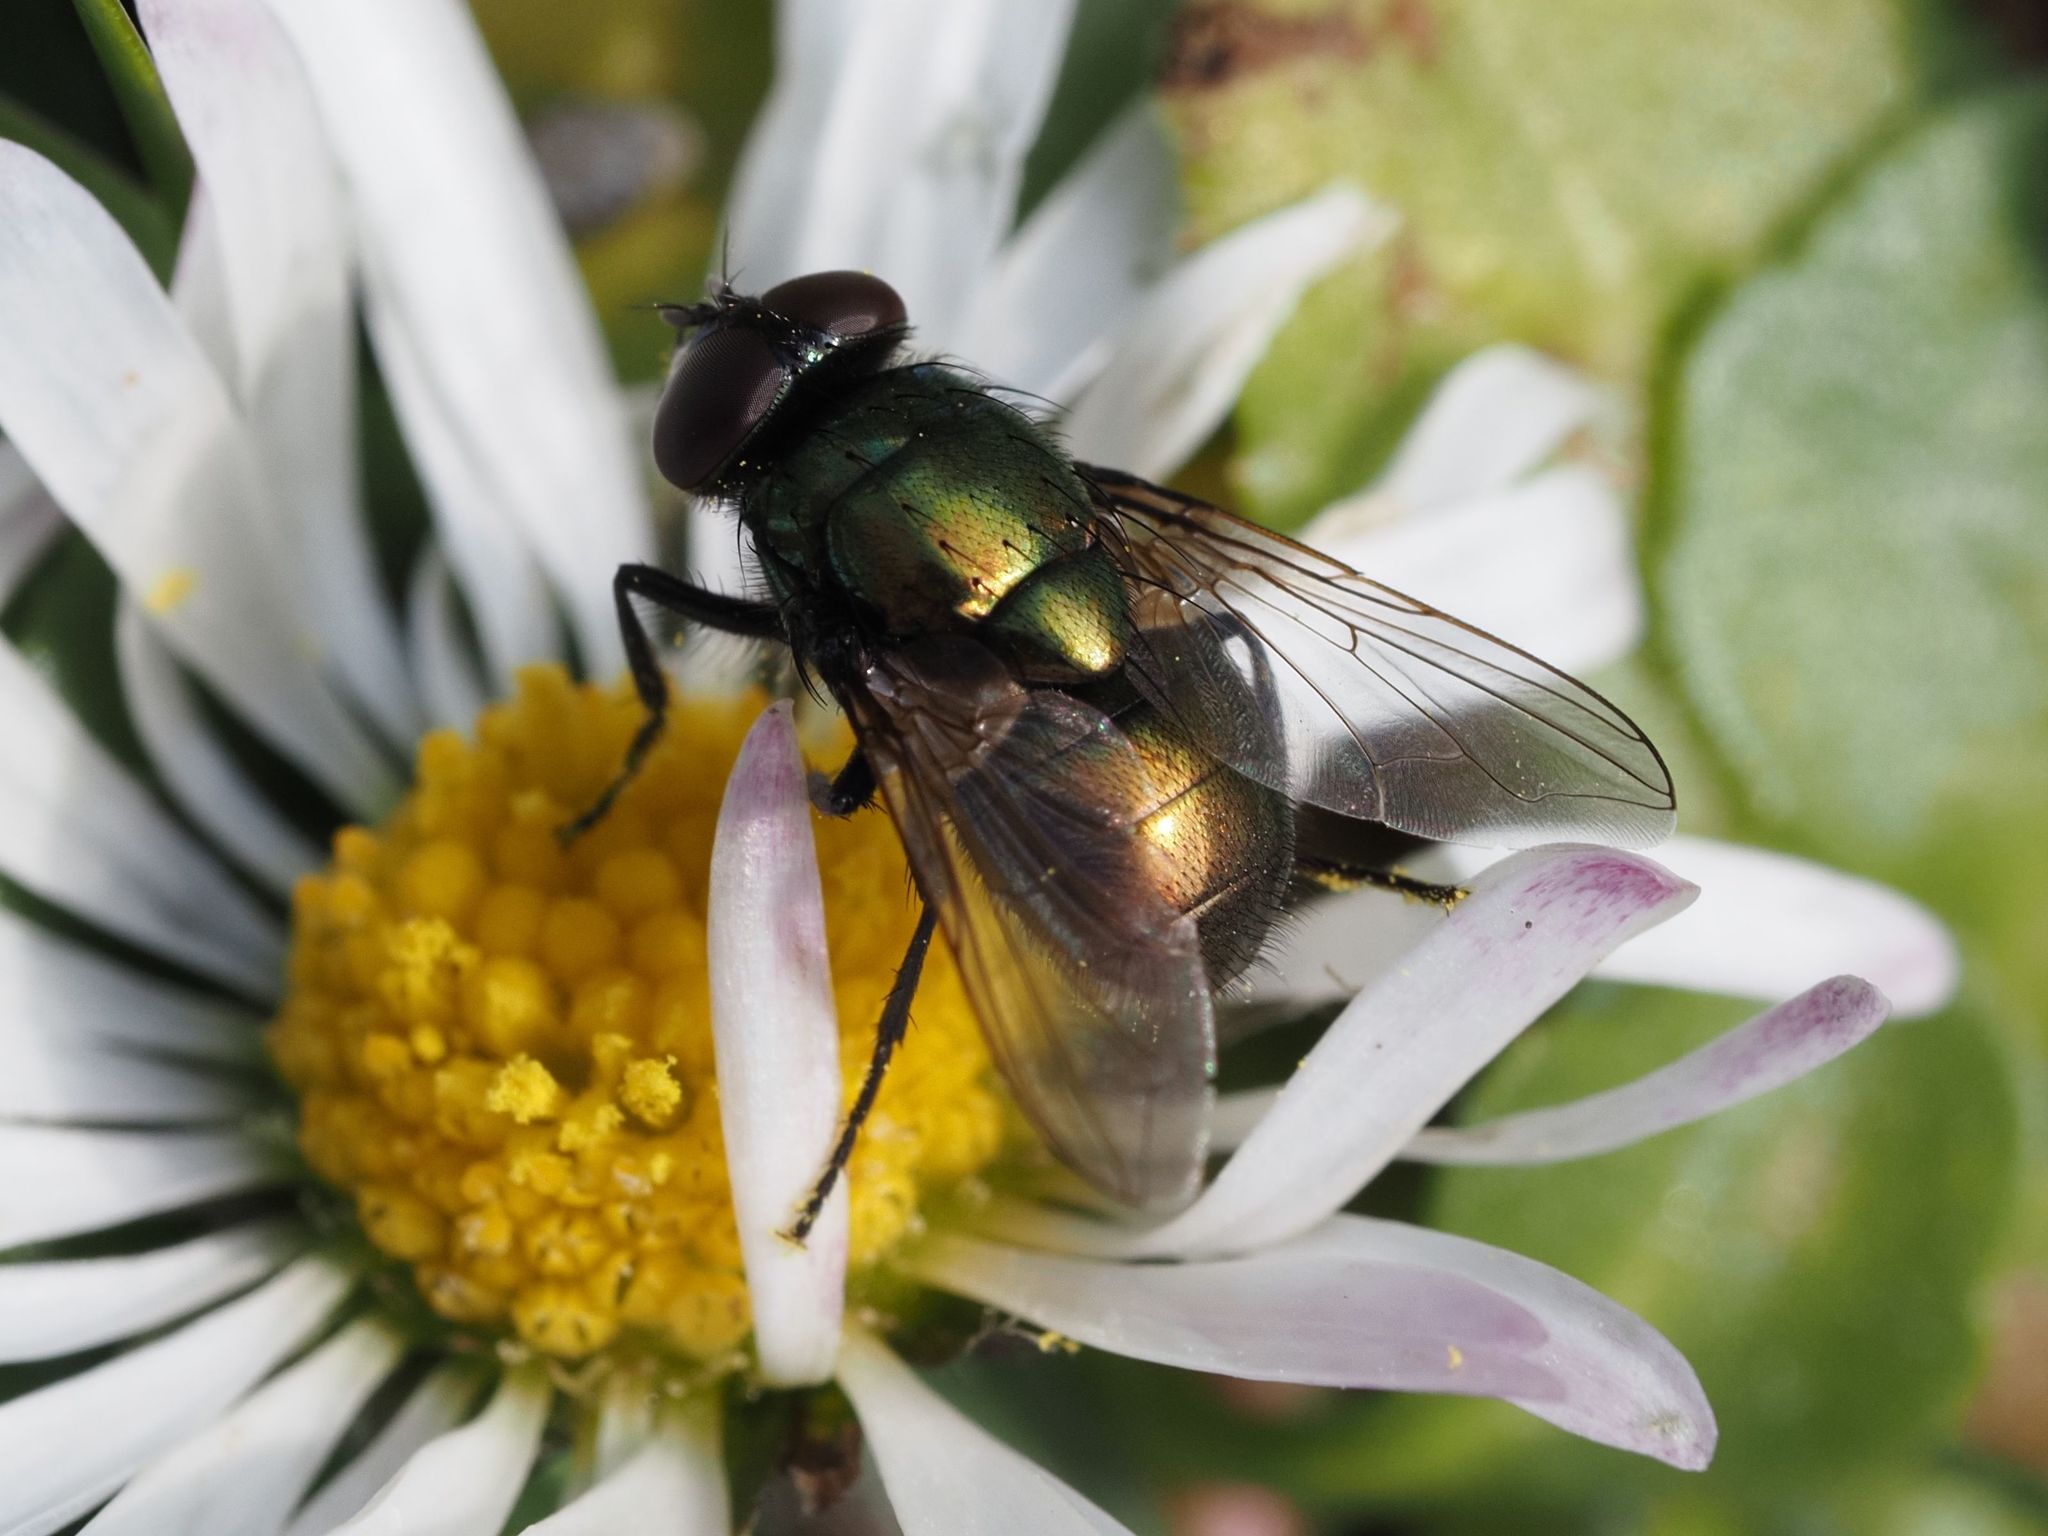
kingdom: Animalia
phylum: Arthropoda
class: Insecta
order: Diptera
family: Muscidae
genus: Neomyia
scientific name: Neomyia cornicina
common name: House fly
